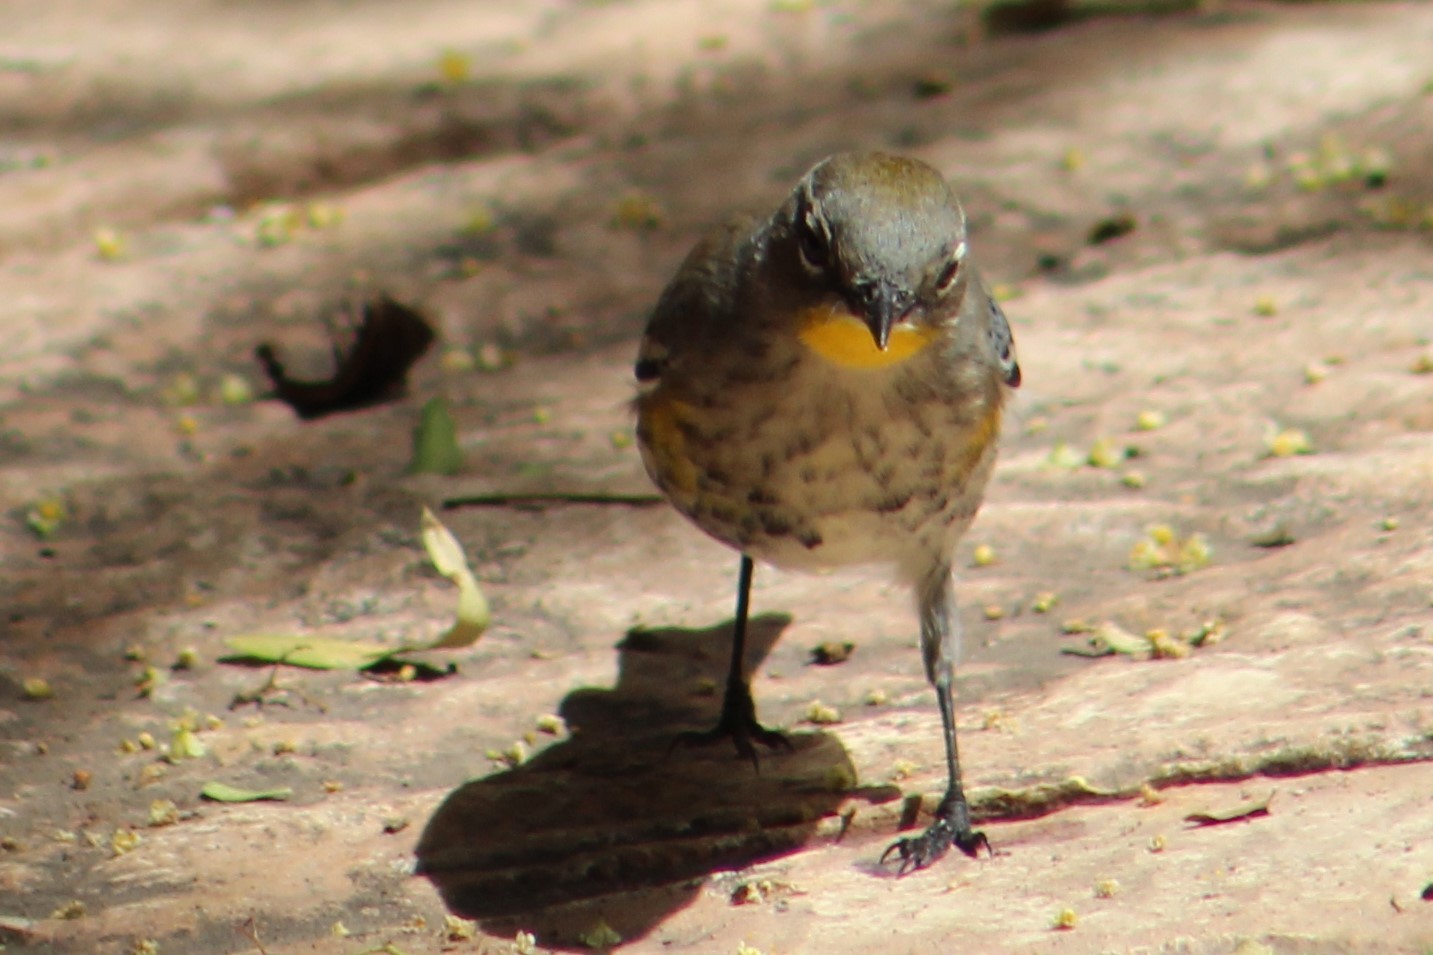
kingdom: Animalia
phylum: Chordata
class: Aves
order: Passeriformes
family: Parulidae
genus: Setophaga
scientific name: Setophaga coronata
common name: Myrtle warbler
